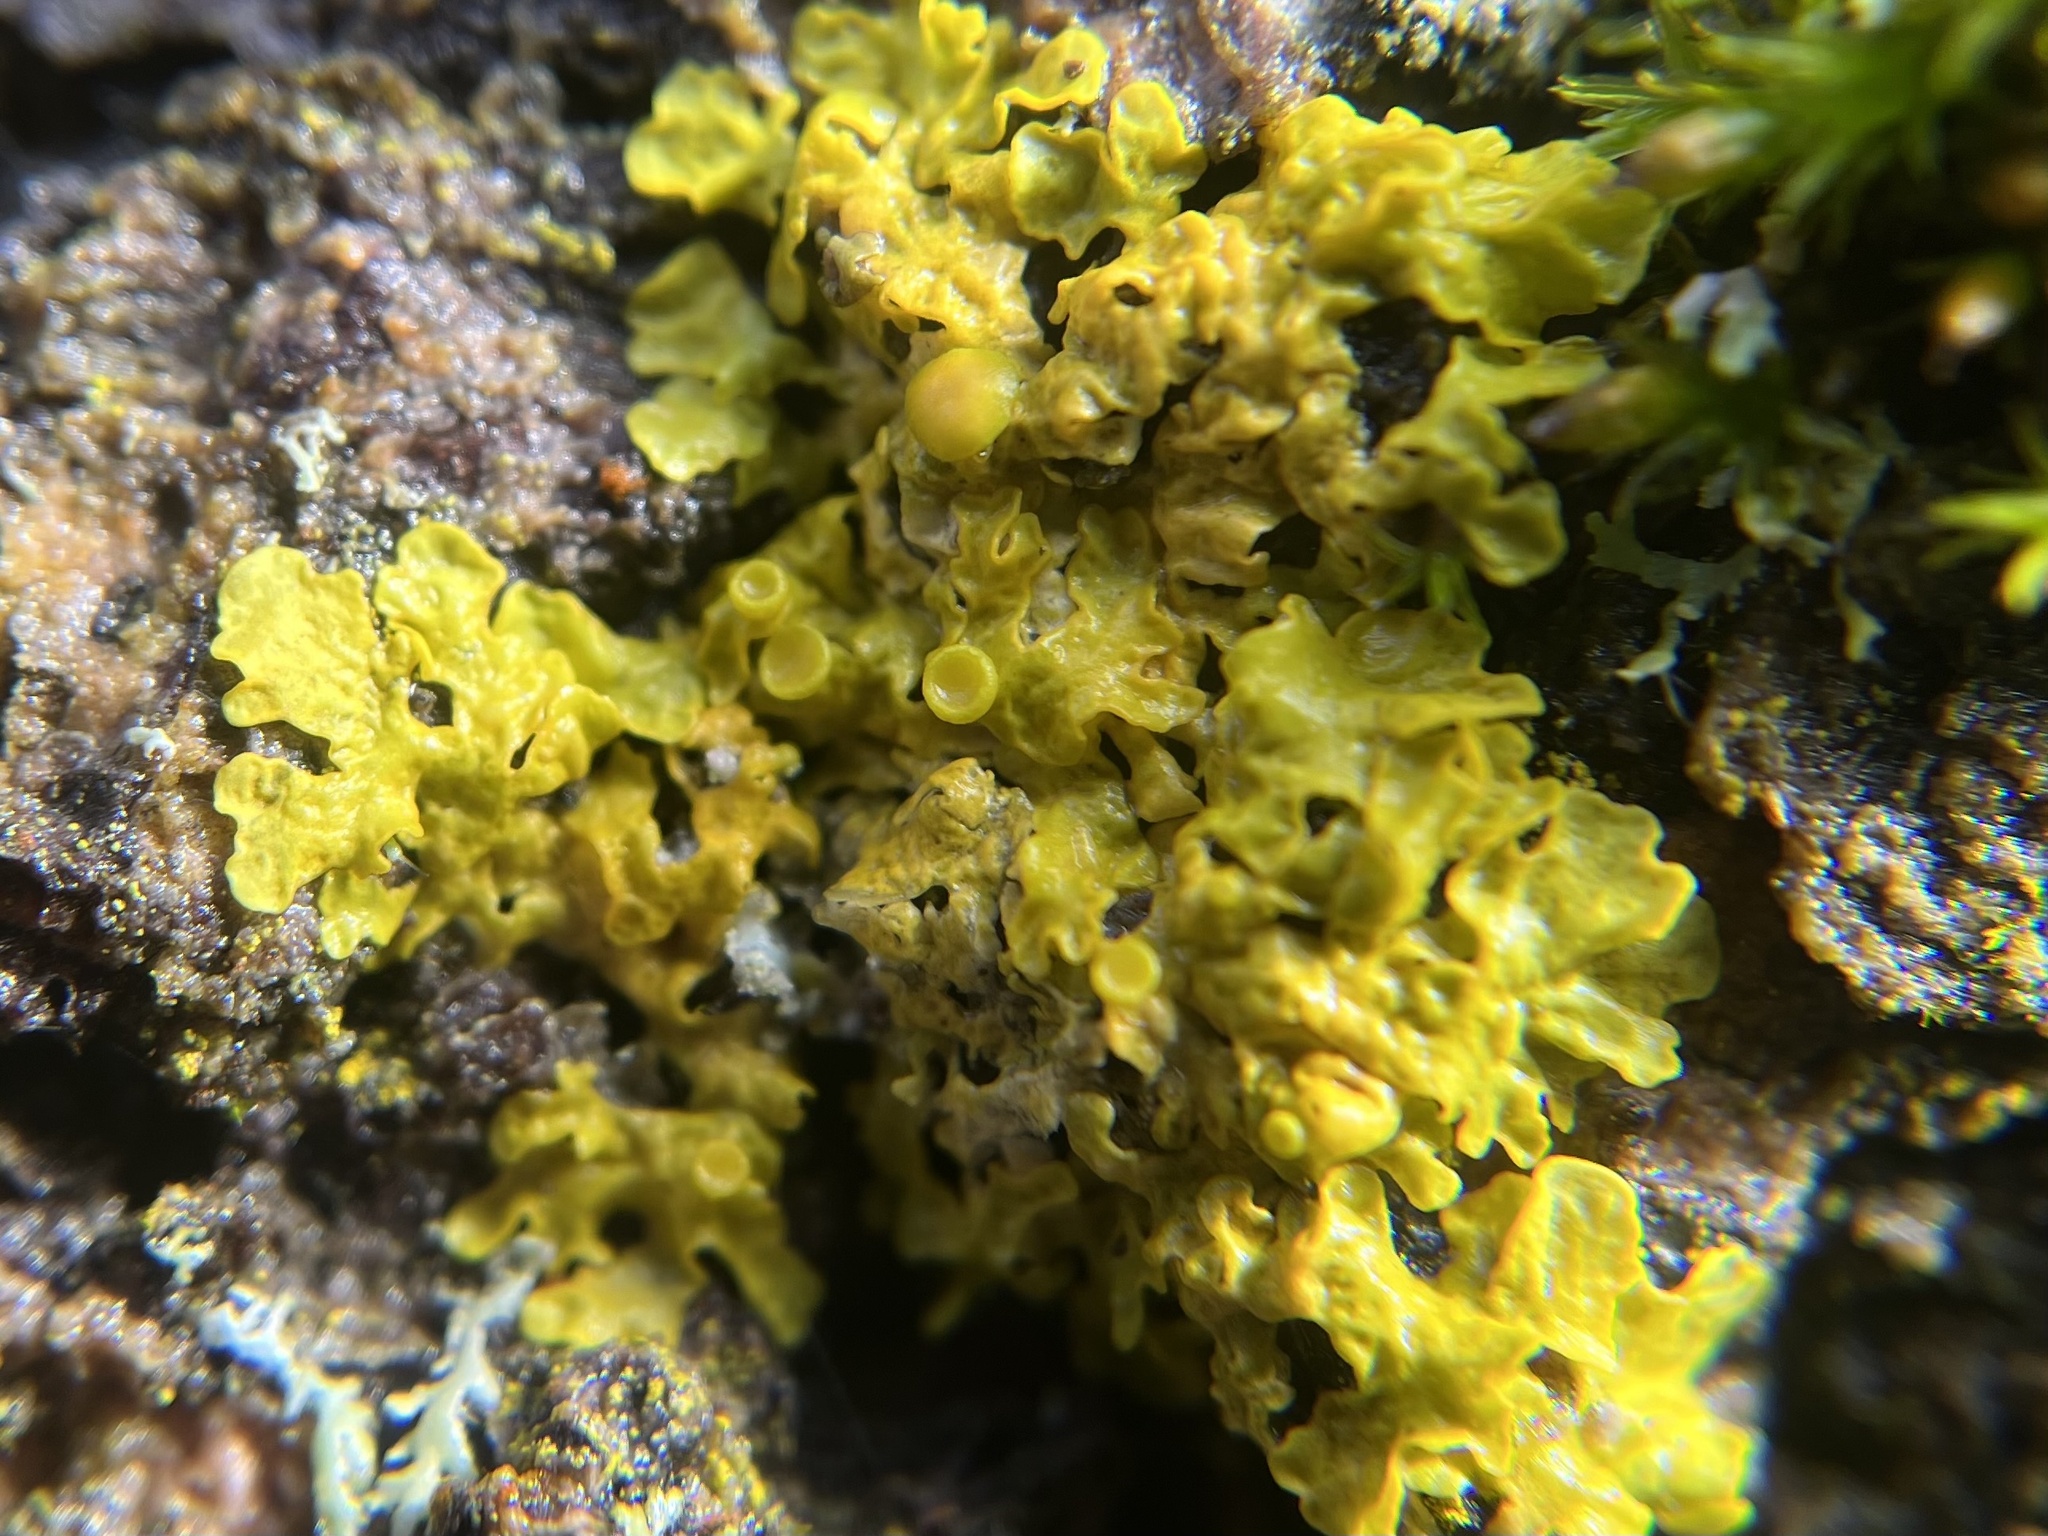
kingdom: Fungi
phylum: Ascomycota
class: Lecanoromycetes
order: Teloschistales
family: Teloschistaceae
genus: Xanthoria
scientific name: Xanthoria parietina
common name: Common orange lichen
